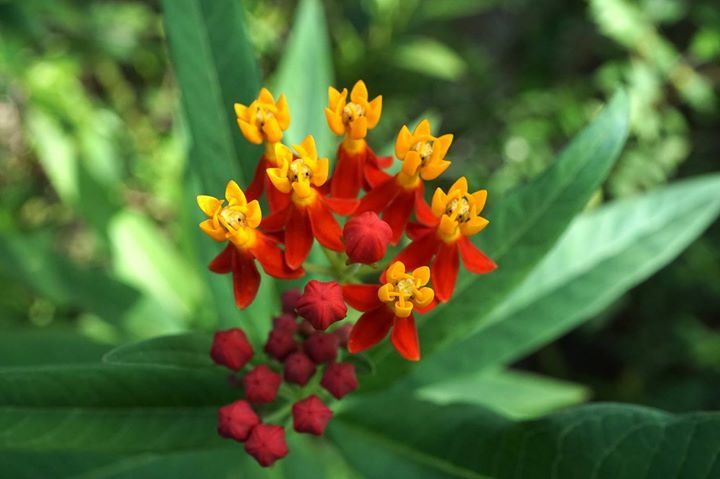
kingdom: Plantae
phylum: Tracheophyta
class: Magnoliopsida
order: Gentianales
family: Apocynaceae
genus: Asclepias
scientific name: Asclepias curassavica
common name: Bloodflower
